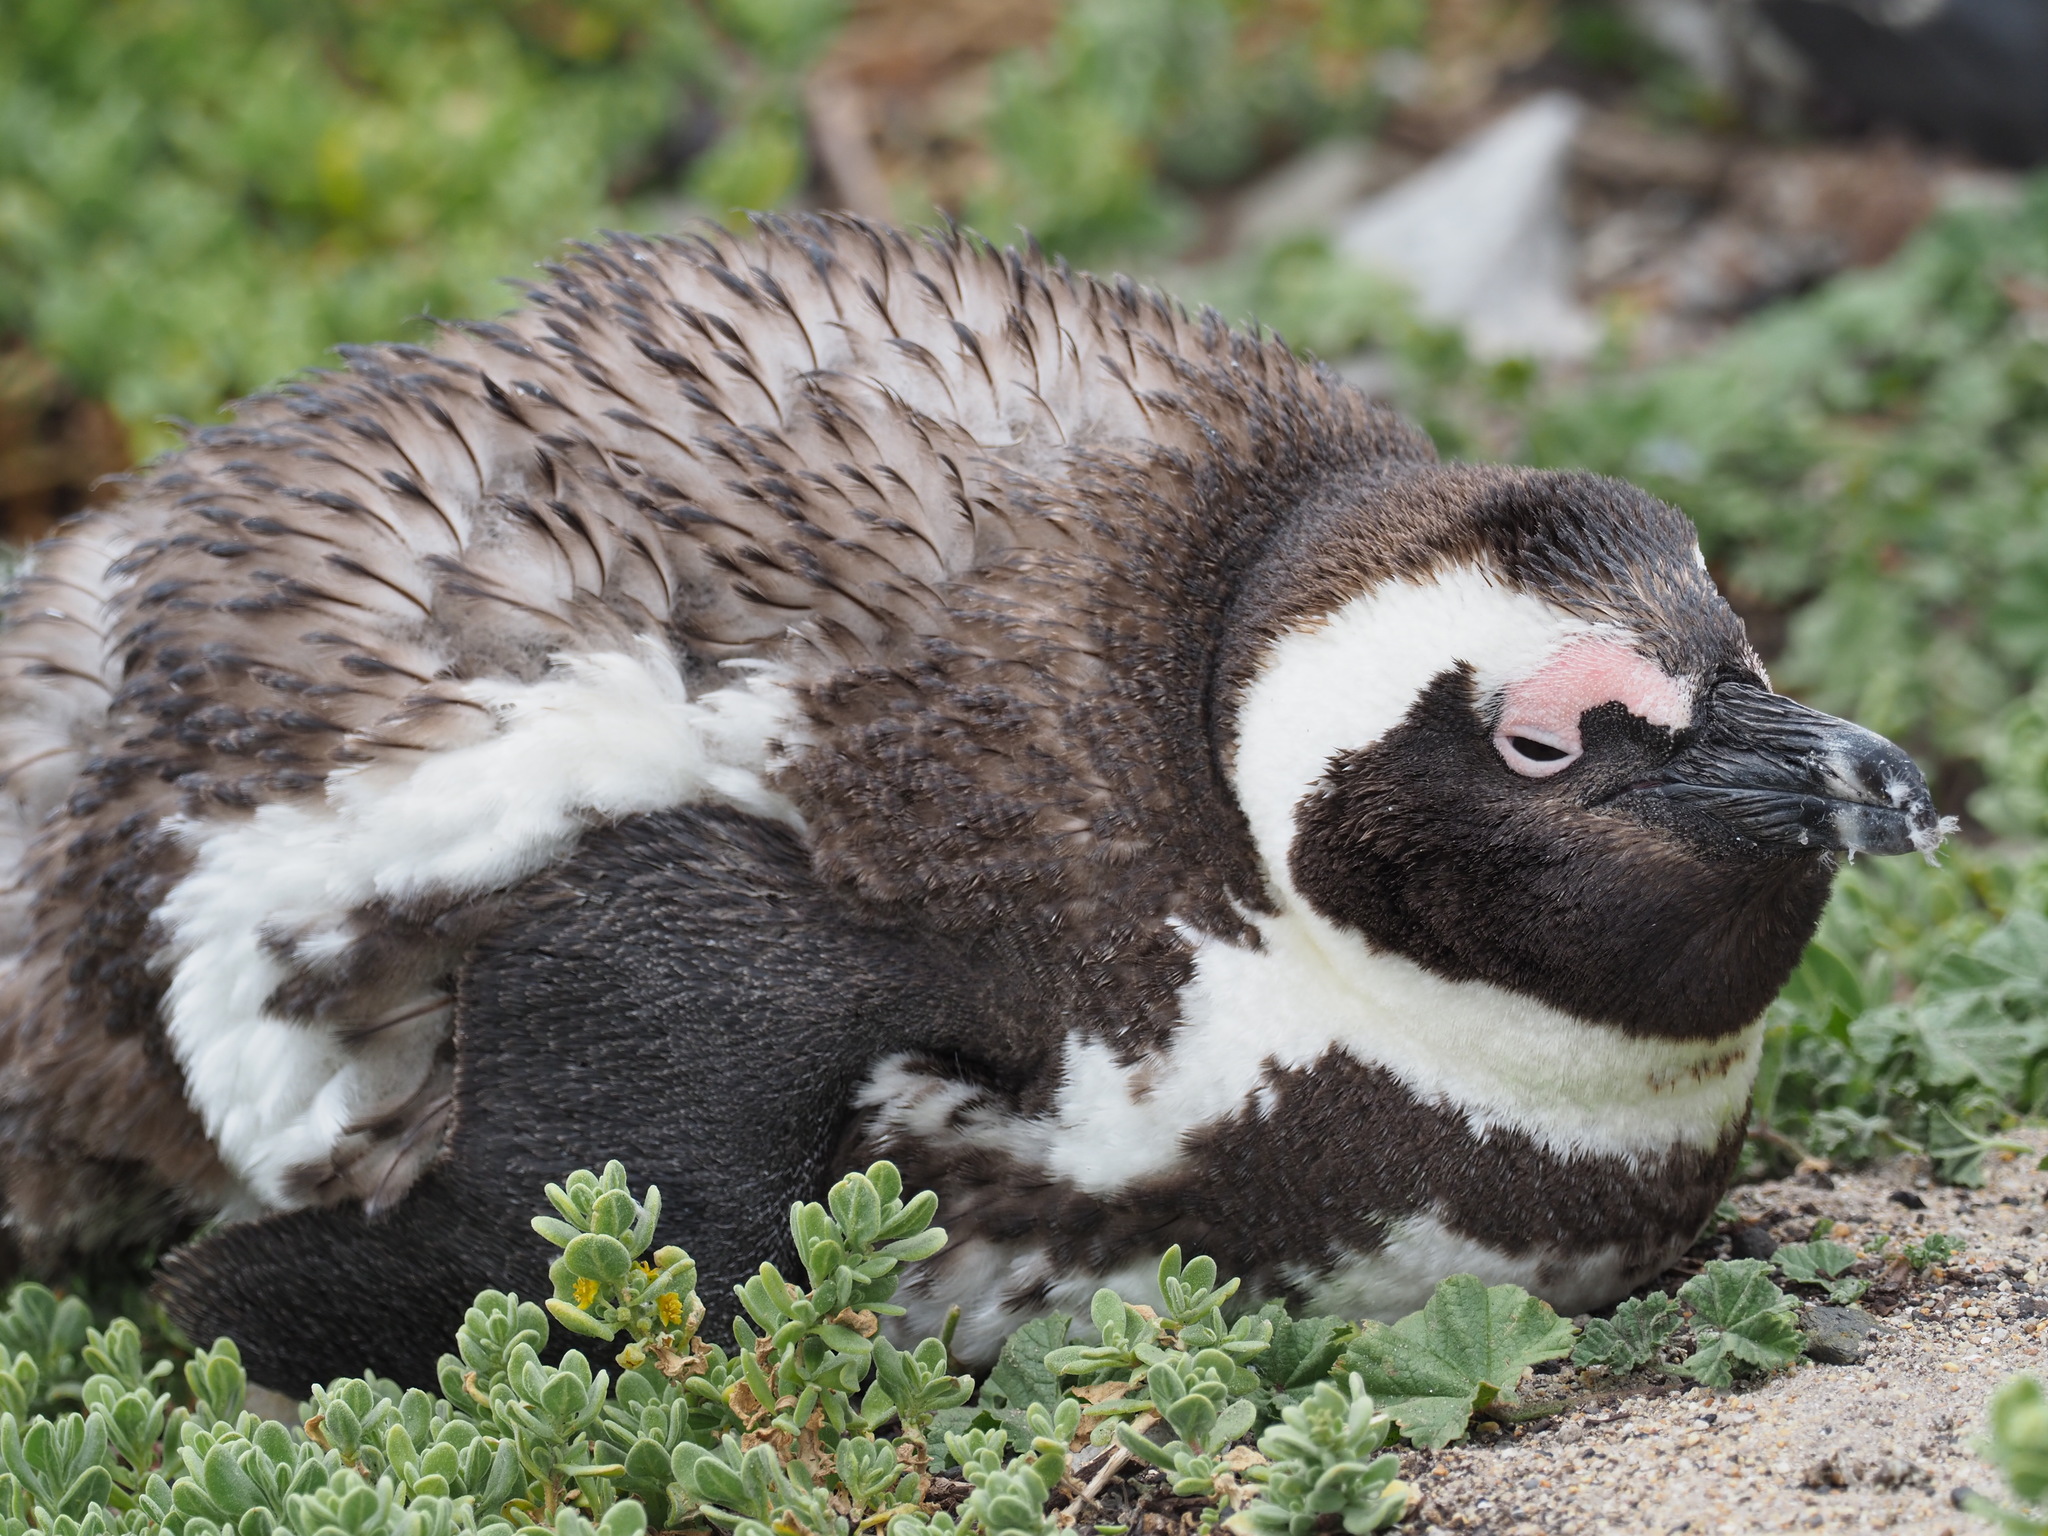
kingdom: Animalia
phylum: Chordata
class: Aves
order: Sphenisciformes
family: Spheniscidae
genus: Spheniscus
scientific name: Spheniscus demersus
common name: African penguin
